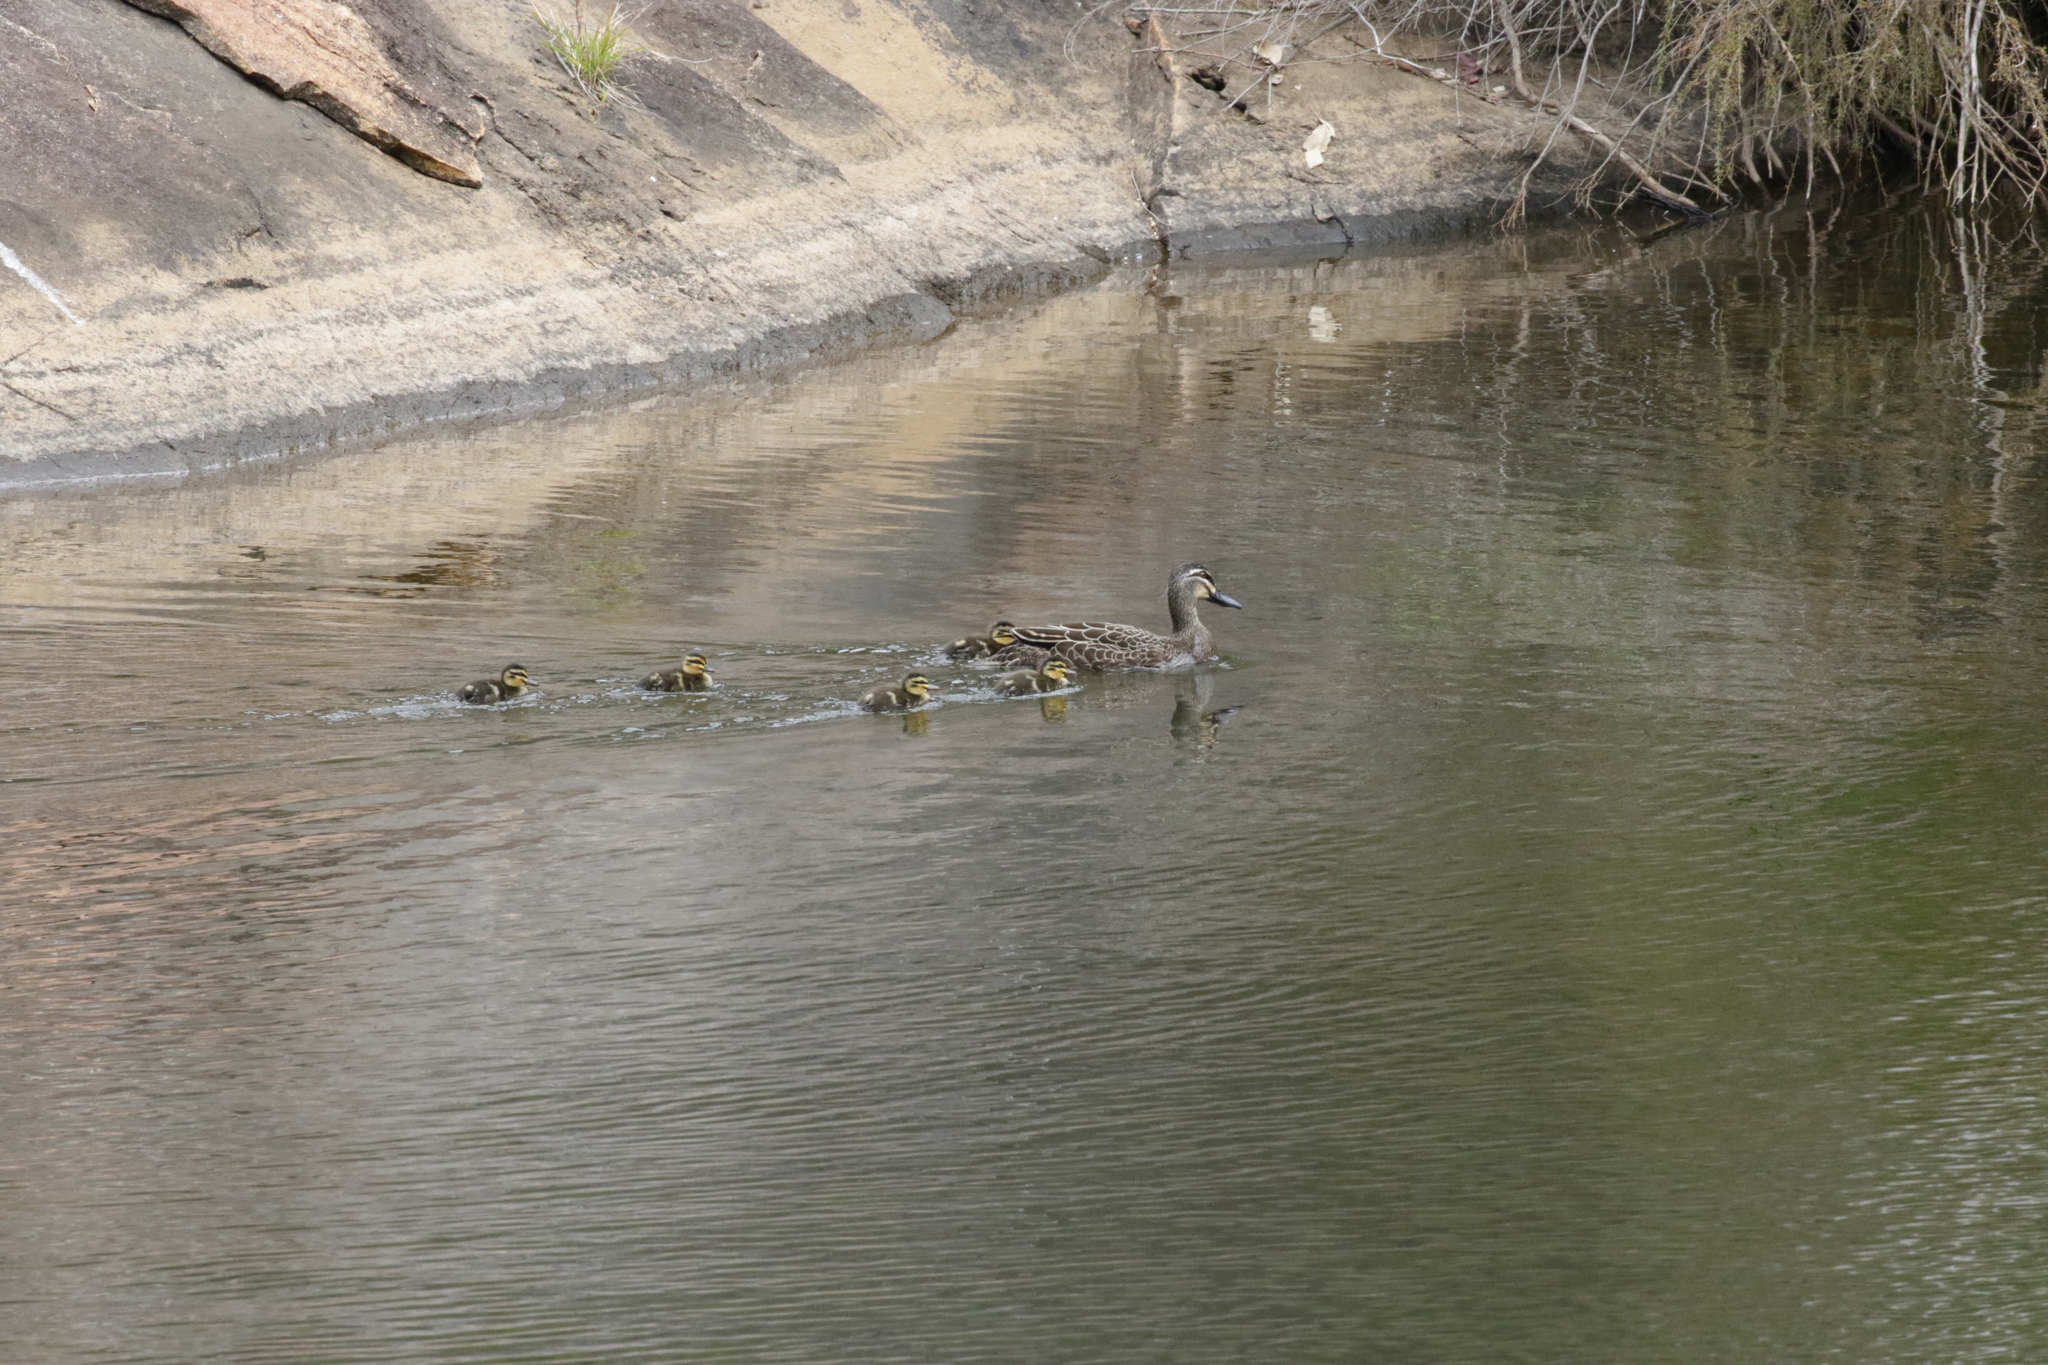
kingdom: Animalia
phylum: Chordata
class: Aves
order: Anseriformes
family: Anatidae
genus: Anas
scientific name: Anas superciliosa
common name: Pacific black duck
